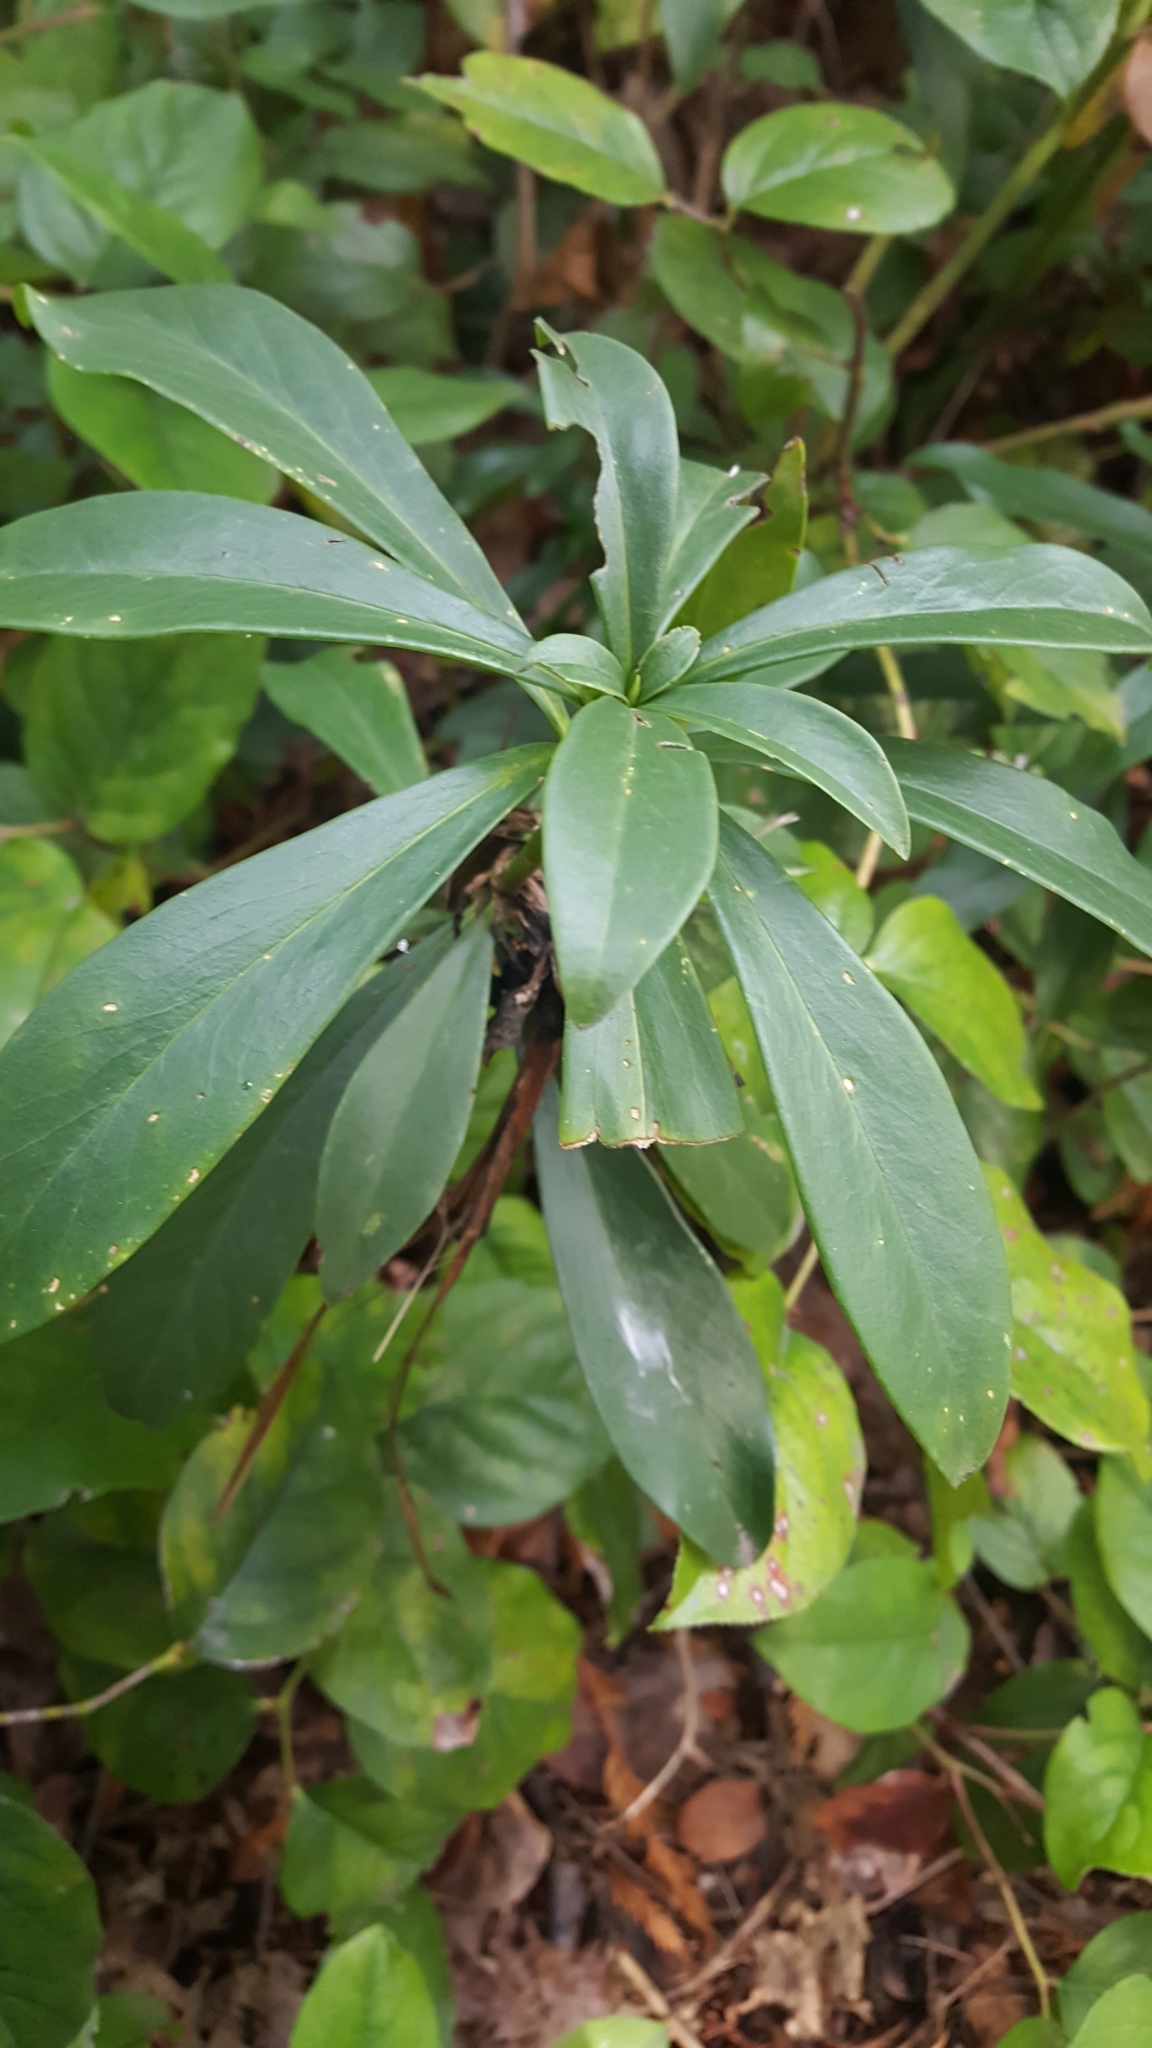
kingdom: Plantae
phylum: Tracheophyta
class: Magnoliopsida
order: Malvales
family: Thymelaeaceae
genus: Daphne
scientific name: Daphne laureola
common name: Spurge-laurel
